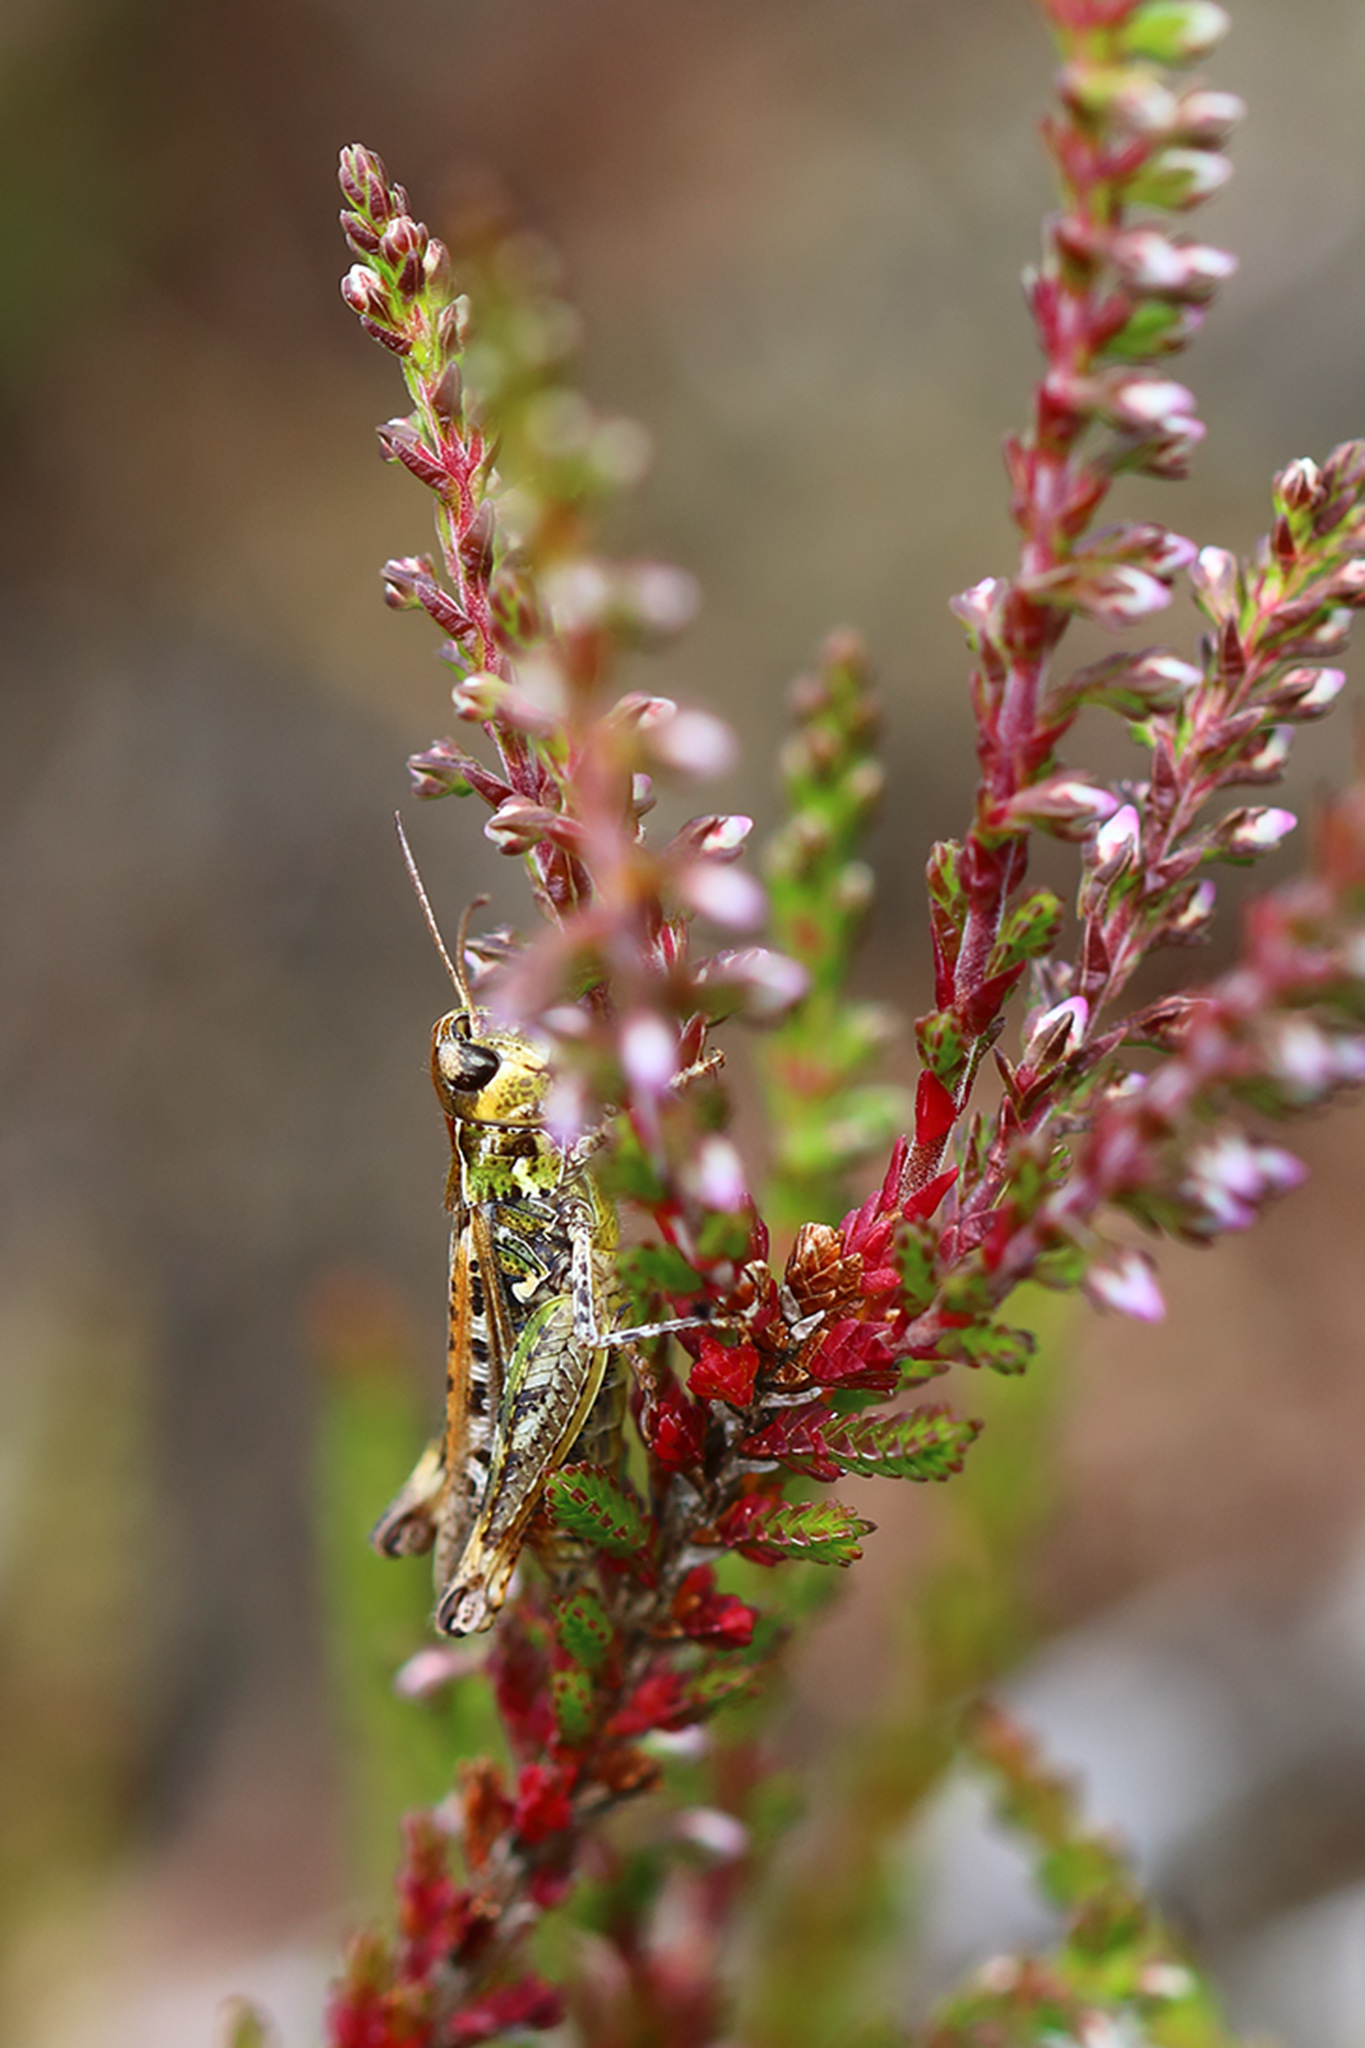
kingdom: Animalia
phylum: Arthropoda
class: Insecta
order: Orthoptera
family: Acrididae
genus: Myrmeleotettix
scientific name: Myrmeleotettix maculatus
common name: Mottled grasshopper
